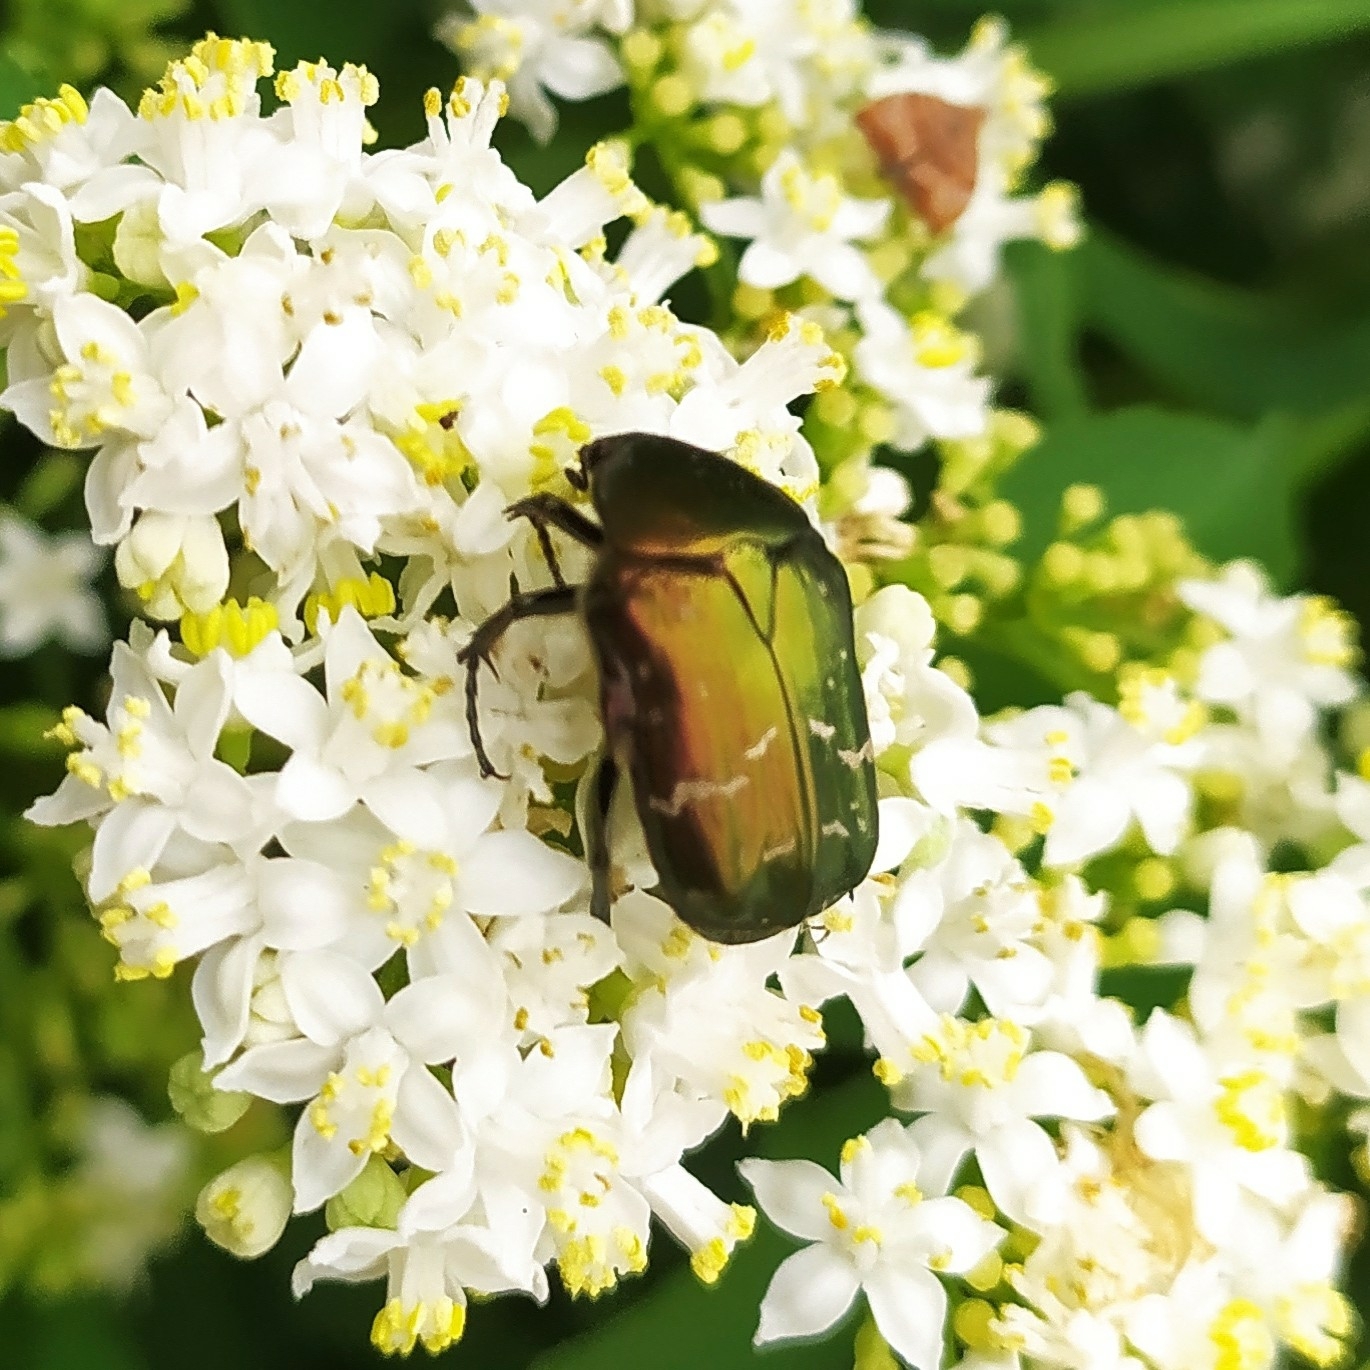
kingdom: Animalia
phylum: Arthropoda
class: Insecta
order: Coleoptera
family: Scarabaeidae
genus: Cetonia
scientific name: Cetonia aurata
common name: Rose chafer
